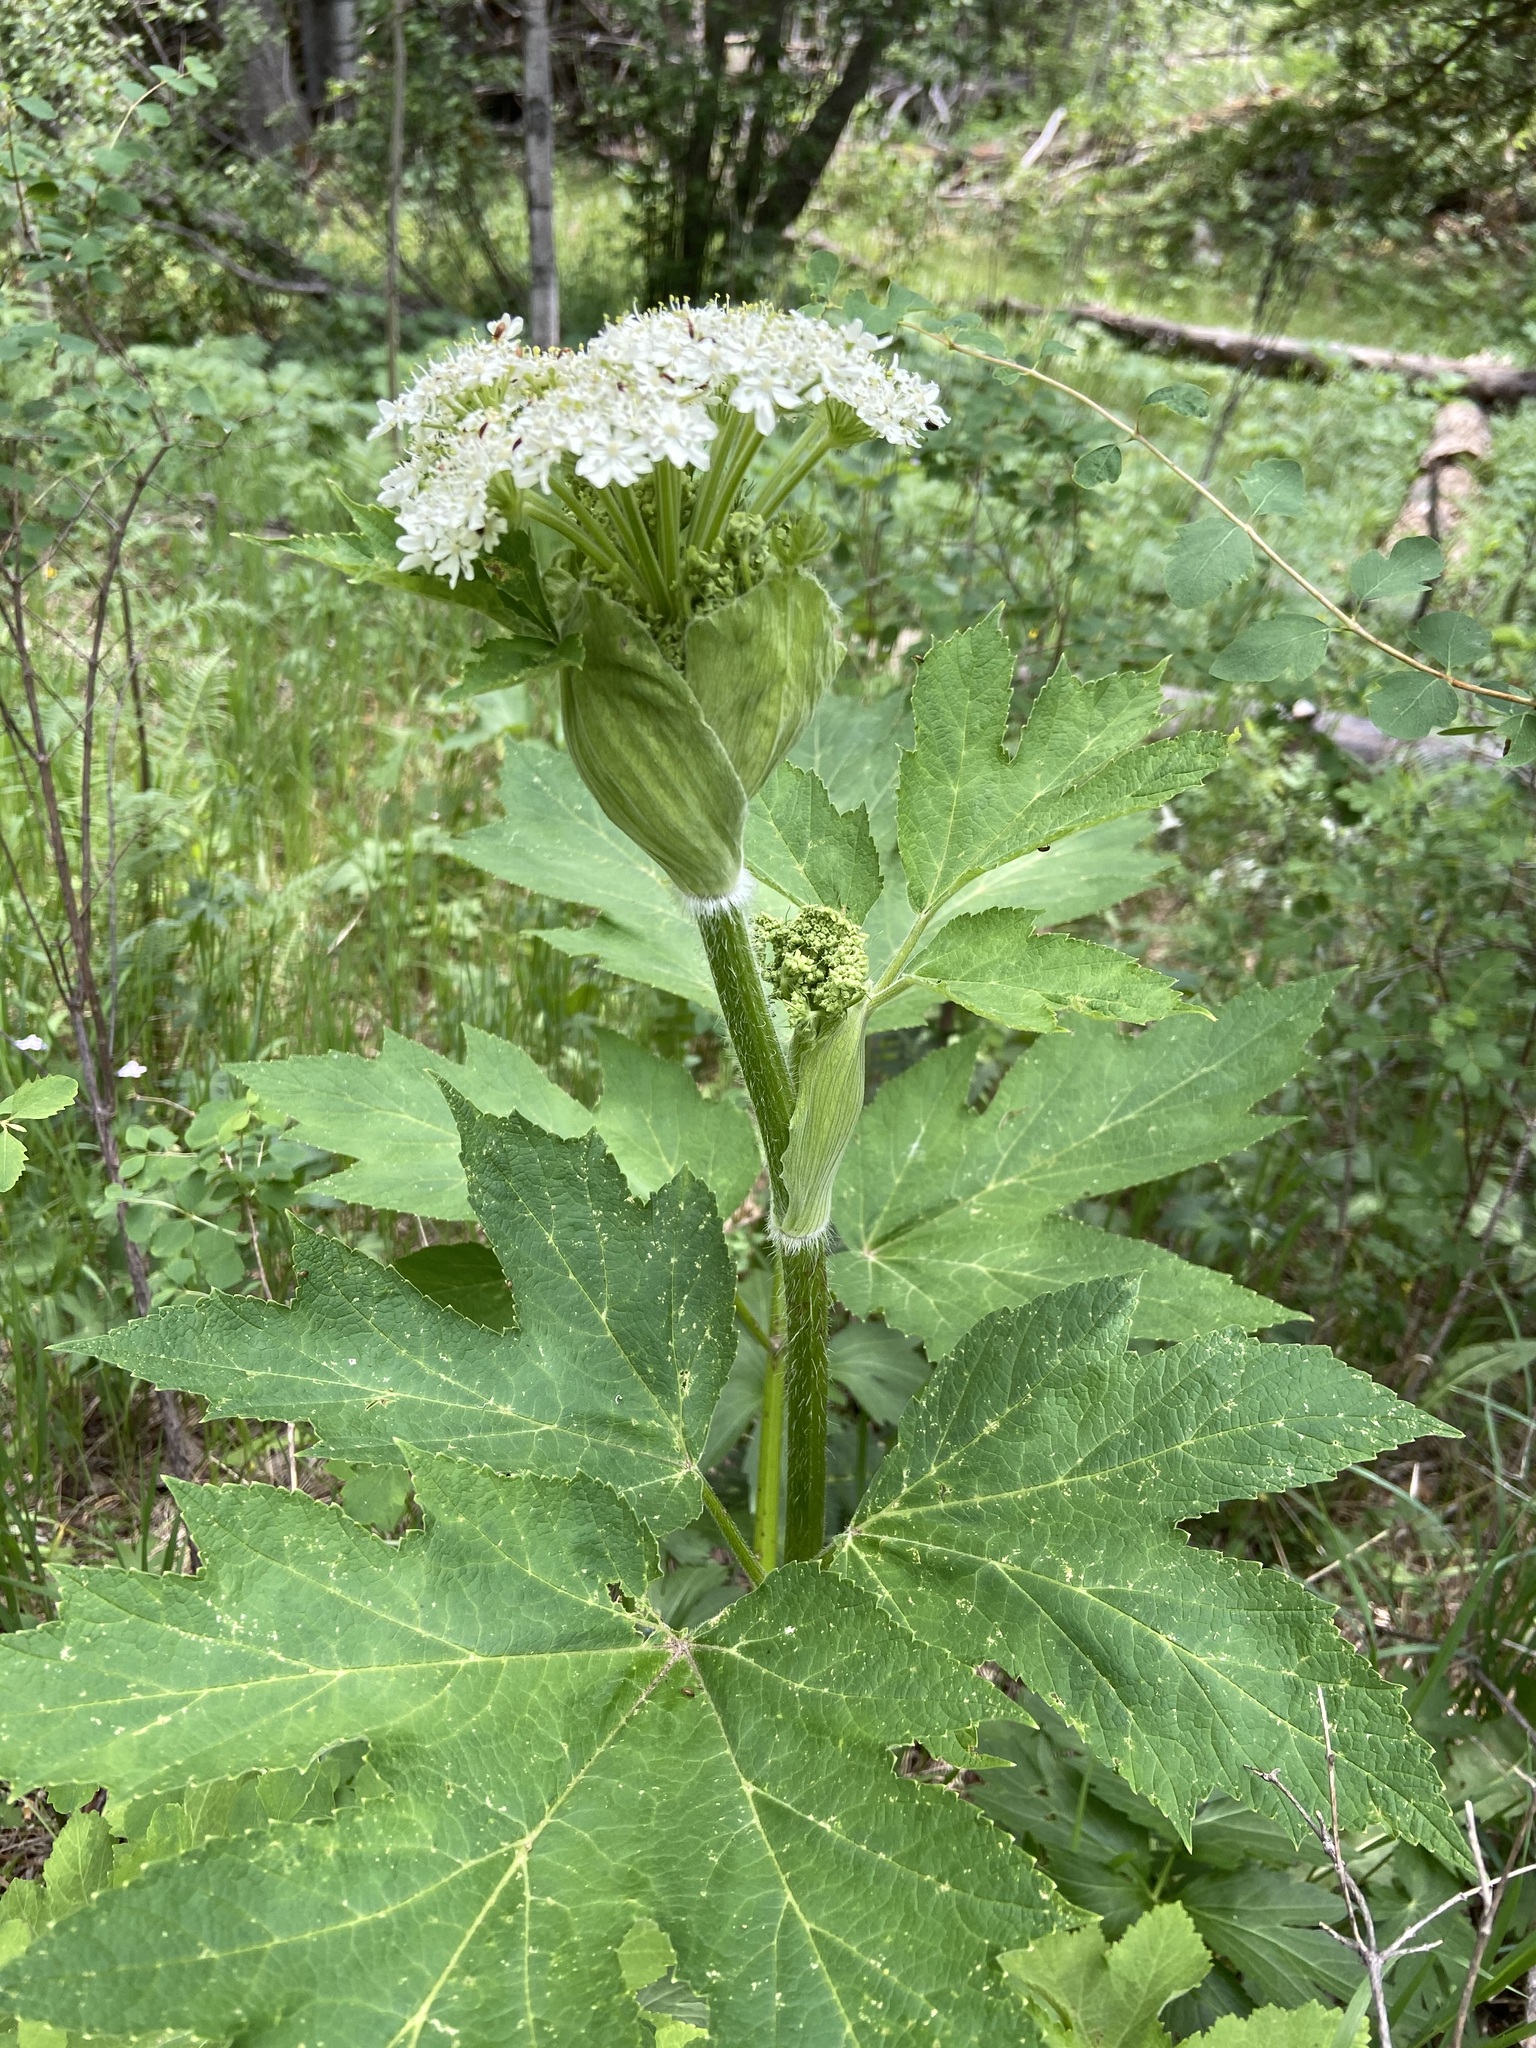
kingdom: Plantae
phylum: Tracheophyta
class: Magnoliopsida
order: Apiales
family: Apiaceae
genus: Heracleum
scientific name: Heracleum maximum
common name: American cow parsnip
